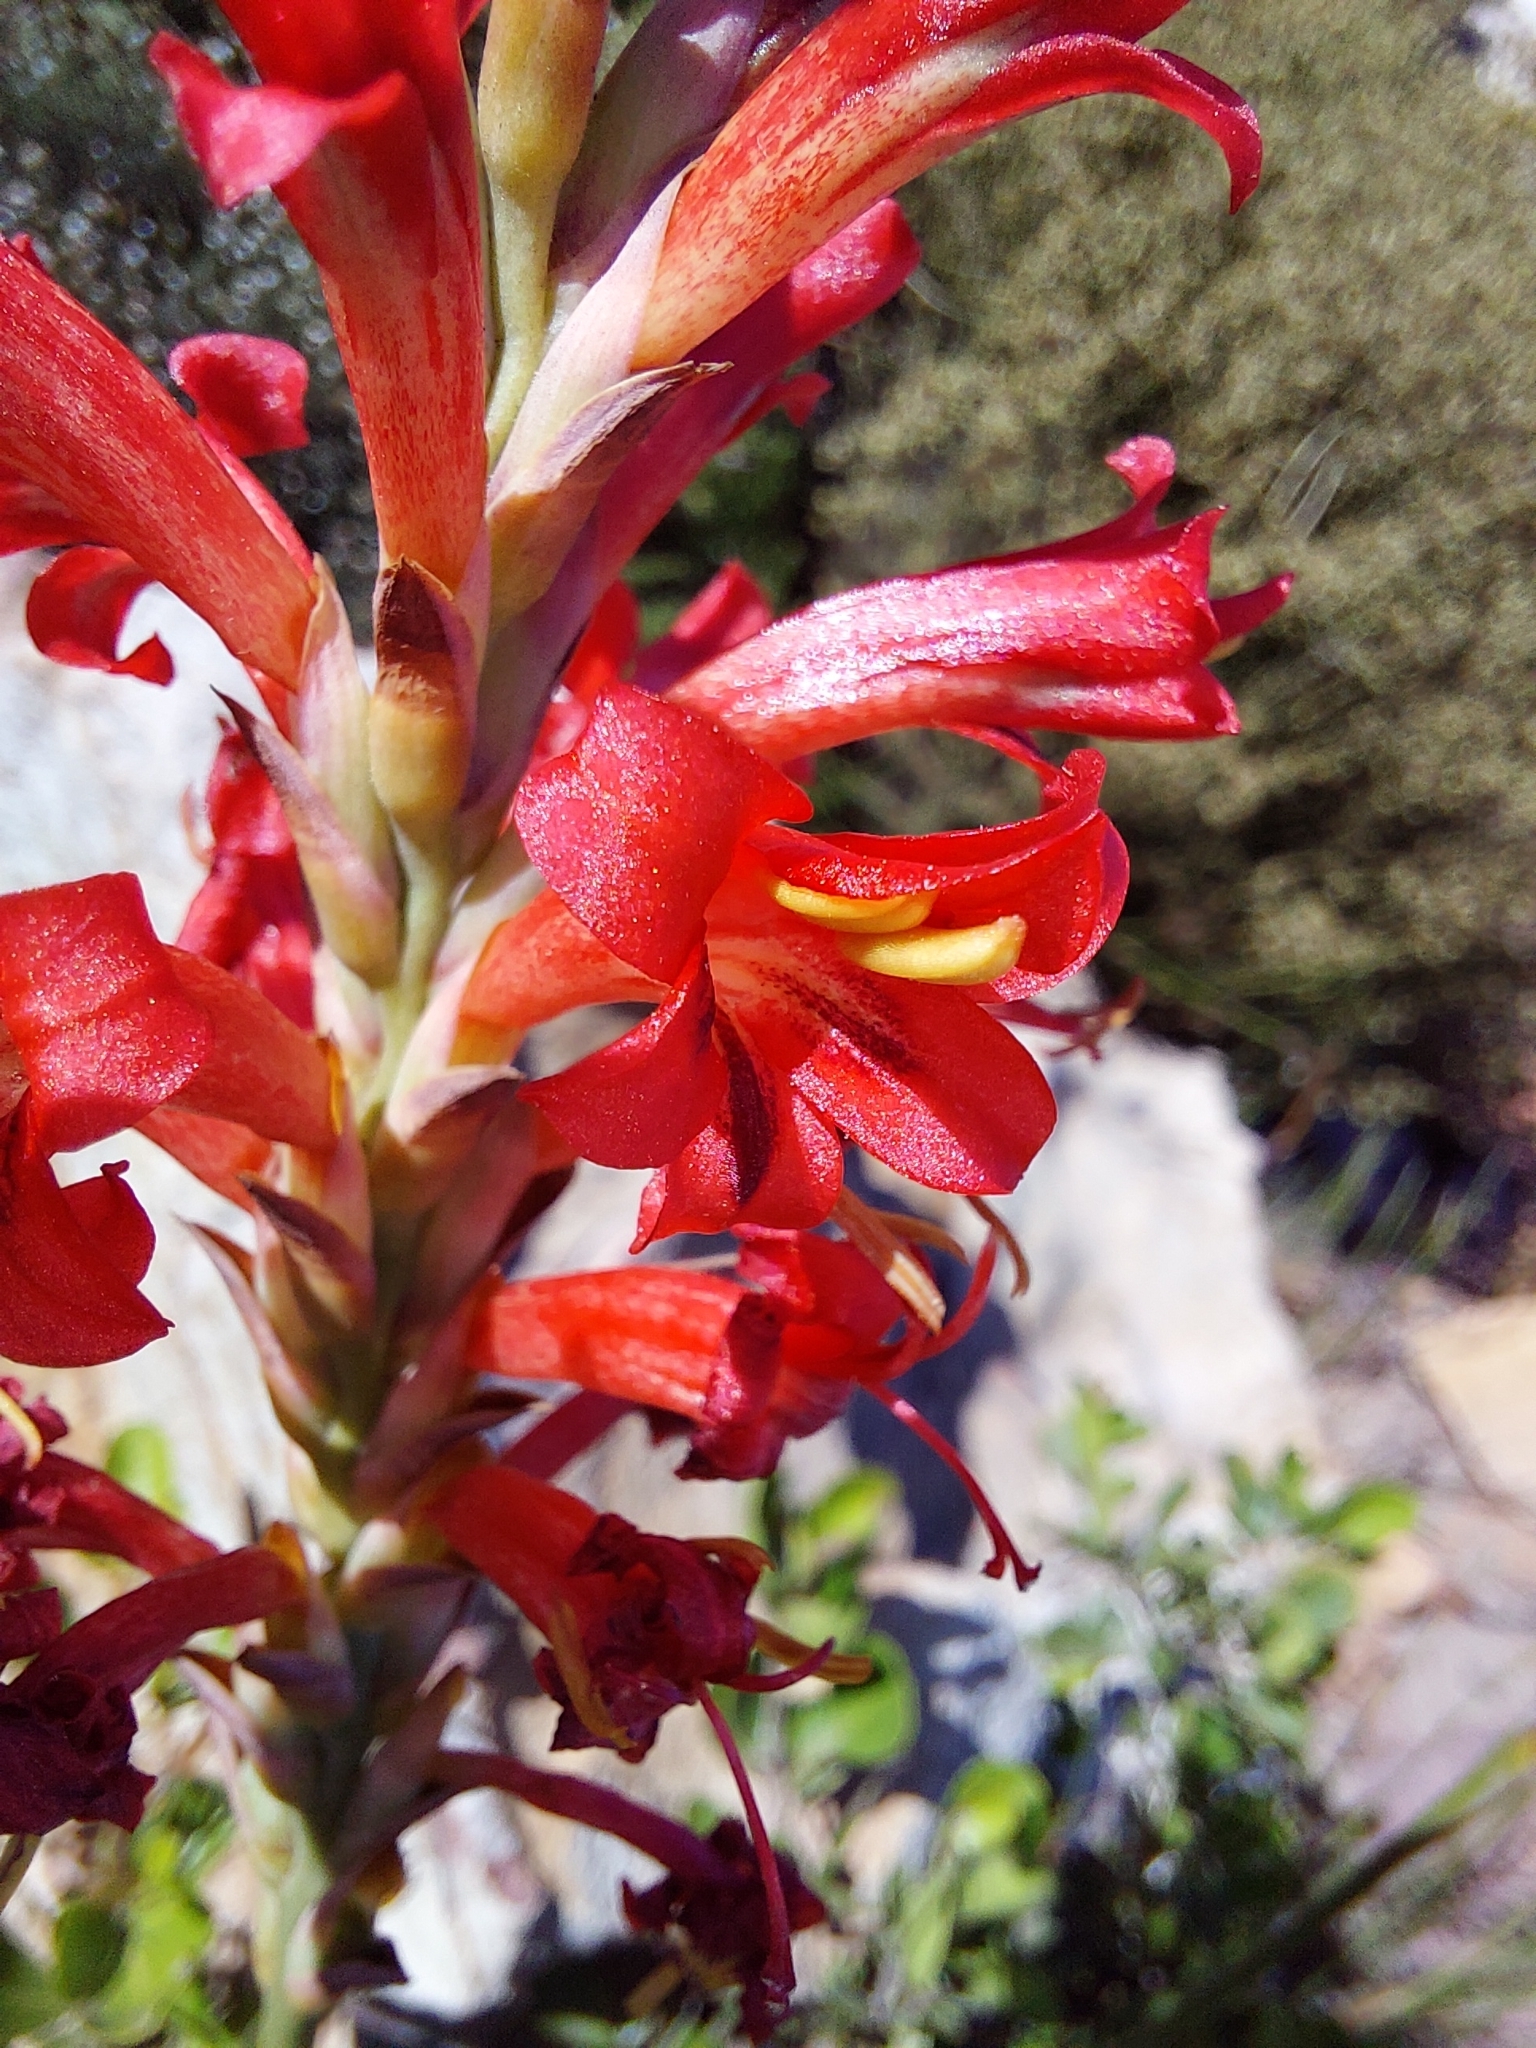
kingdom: Plantae
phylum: Tracheophyta
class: Liliopsida
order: Asparagales
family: Iridaceae
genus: Tritoniopsis
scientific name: Tritoniopsis triticea
